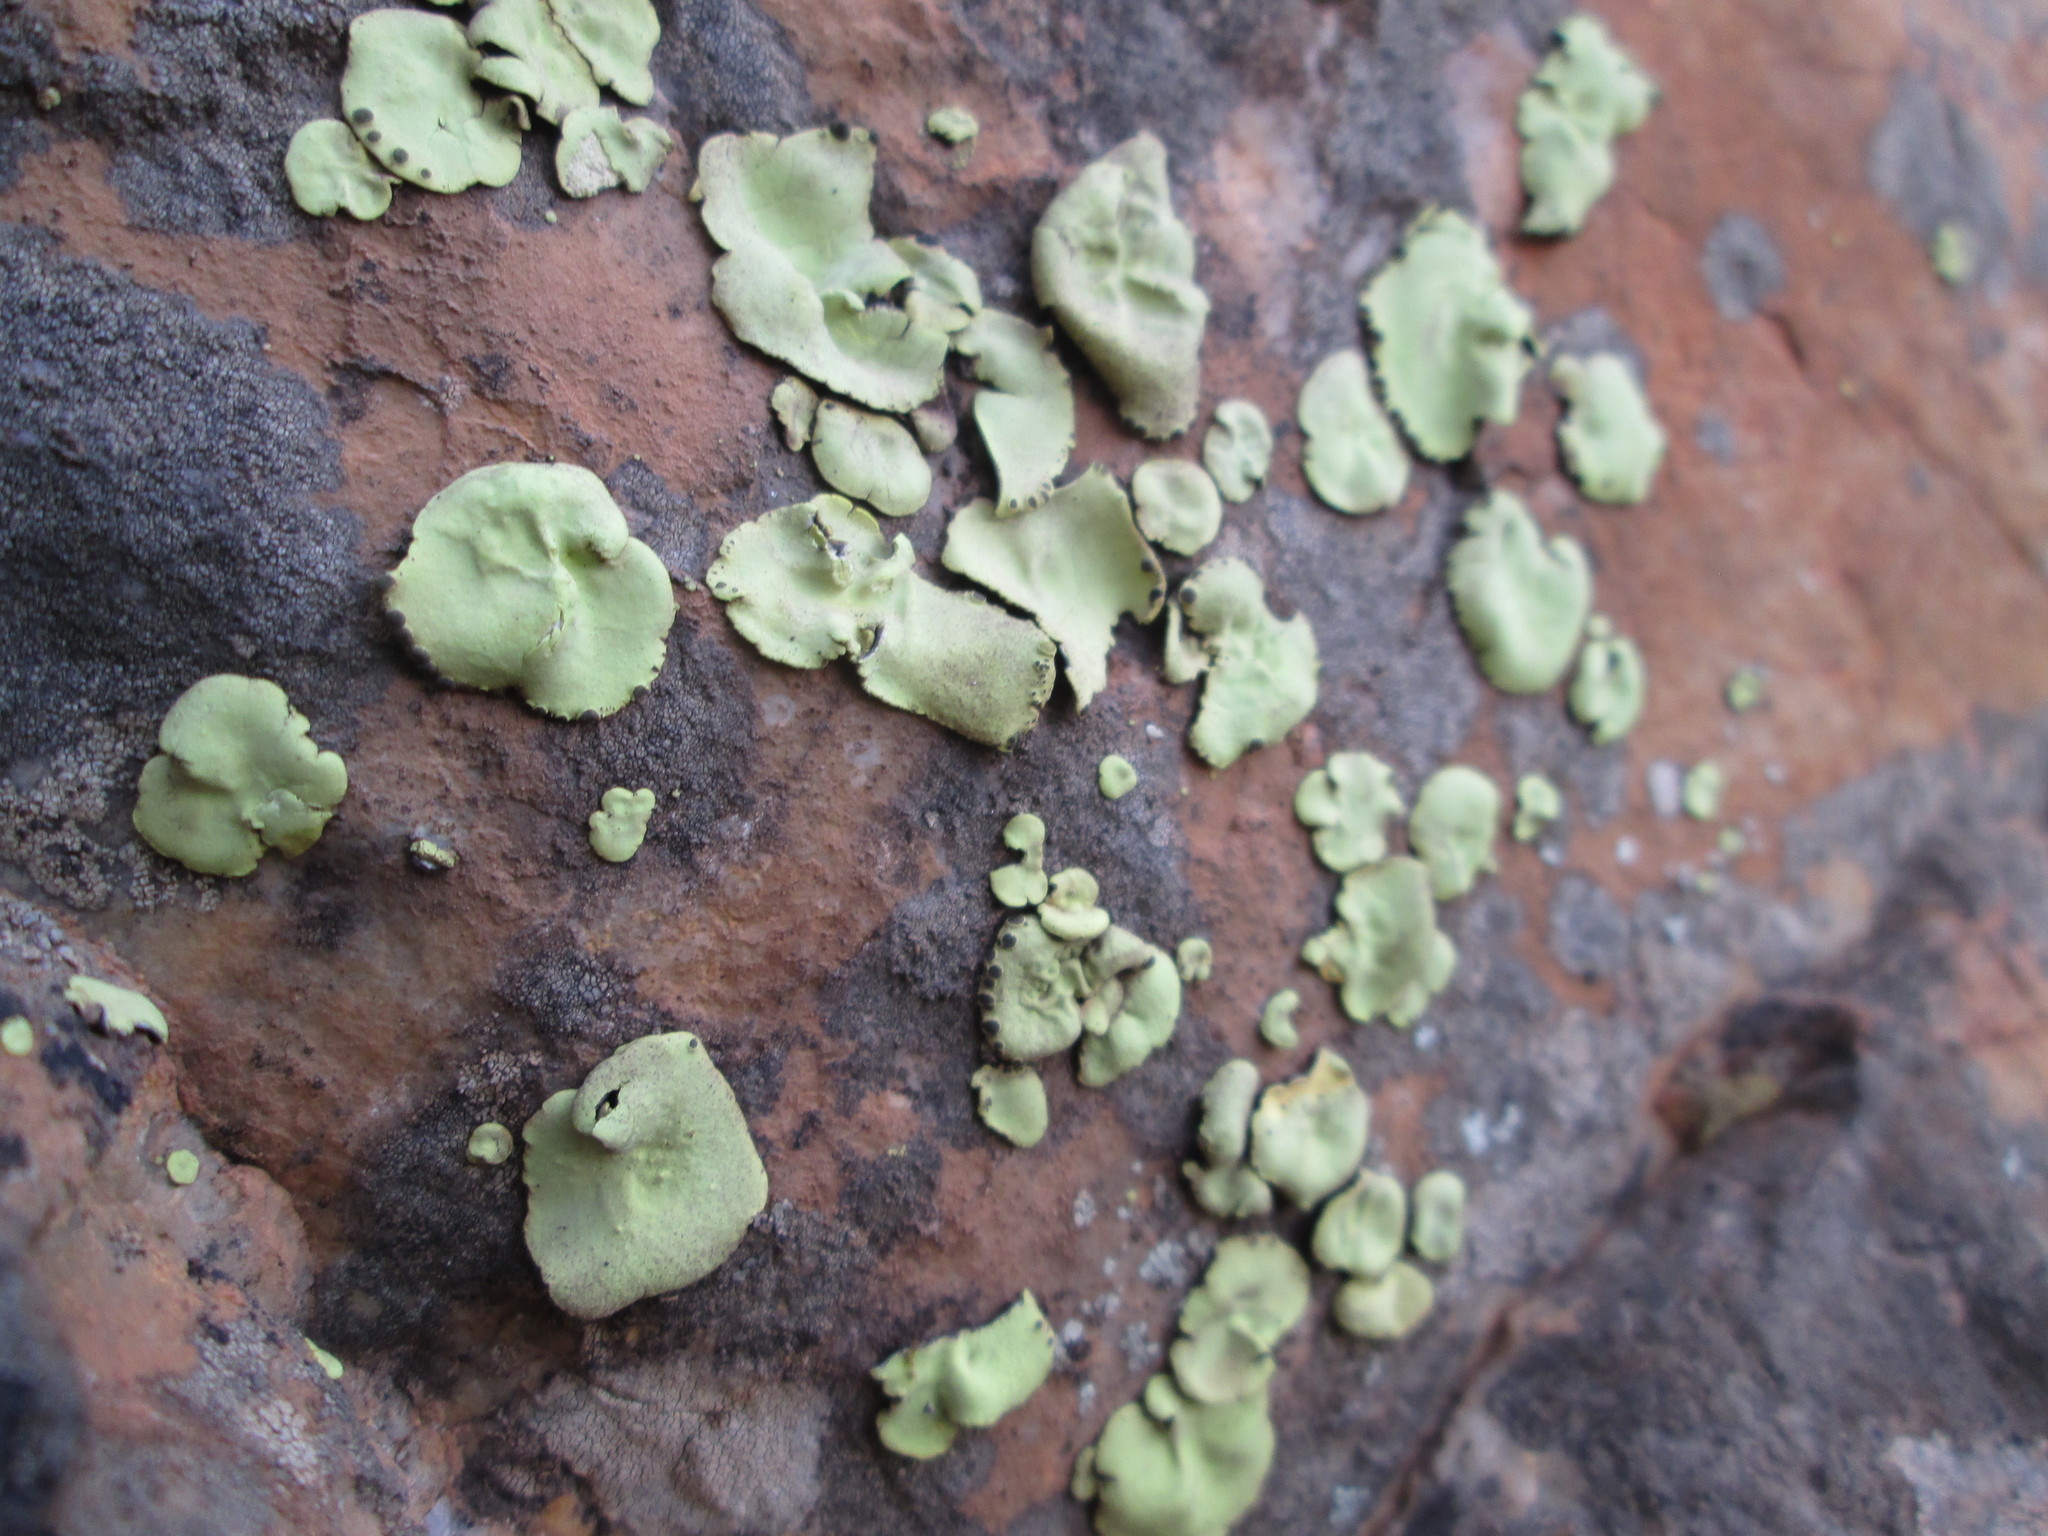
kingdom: Fungi
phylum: Ascomycota
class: Lecanoromycetes
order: Caliciales
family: Caliciaceae
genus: Dermatiscum
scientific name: Dermatiscum thunbergii
